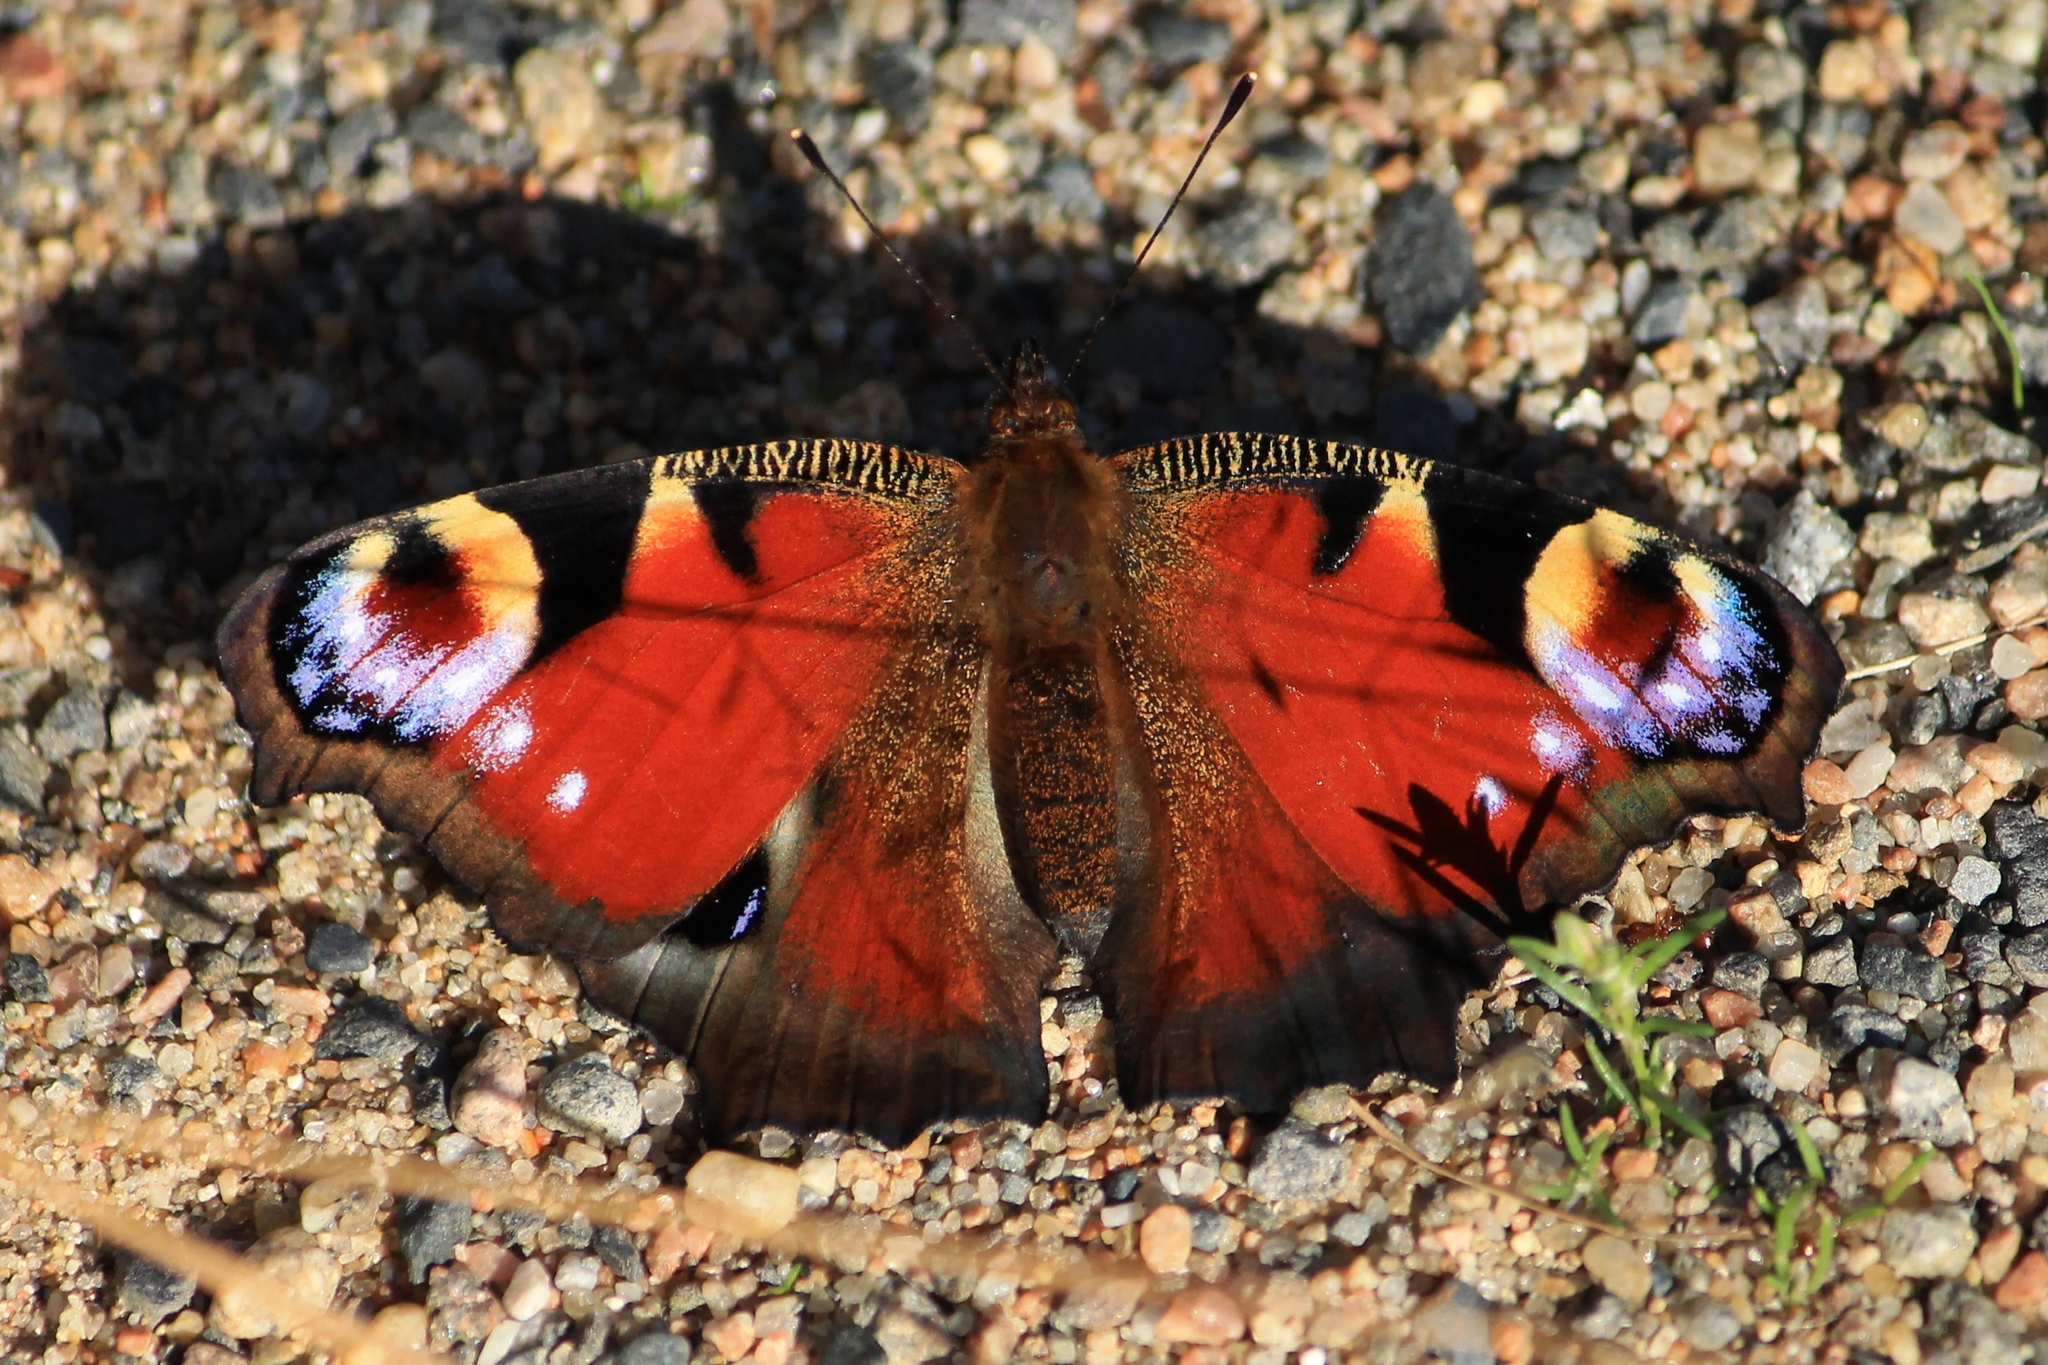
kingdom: Animalia
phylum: Arthropoda
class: Insecta
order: Lepidoptera
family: Nymphalidae
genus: Aglais
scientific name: Aglais io
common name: Peacock
